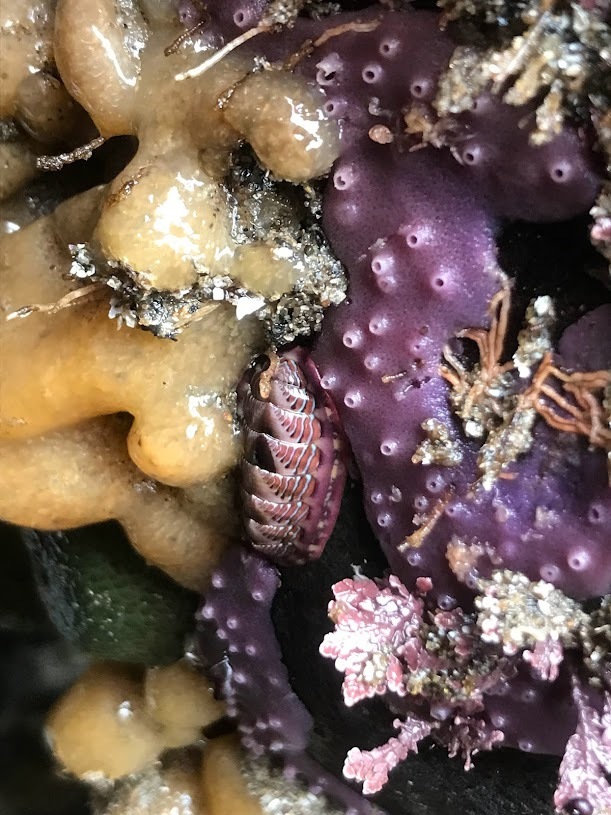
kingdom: Animalia
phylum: Mollusca
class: Polyplacophora
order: Chitonida
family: Tonicellidae
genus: Tonicella
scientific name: Tonicella lineata
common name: Lined chiton
